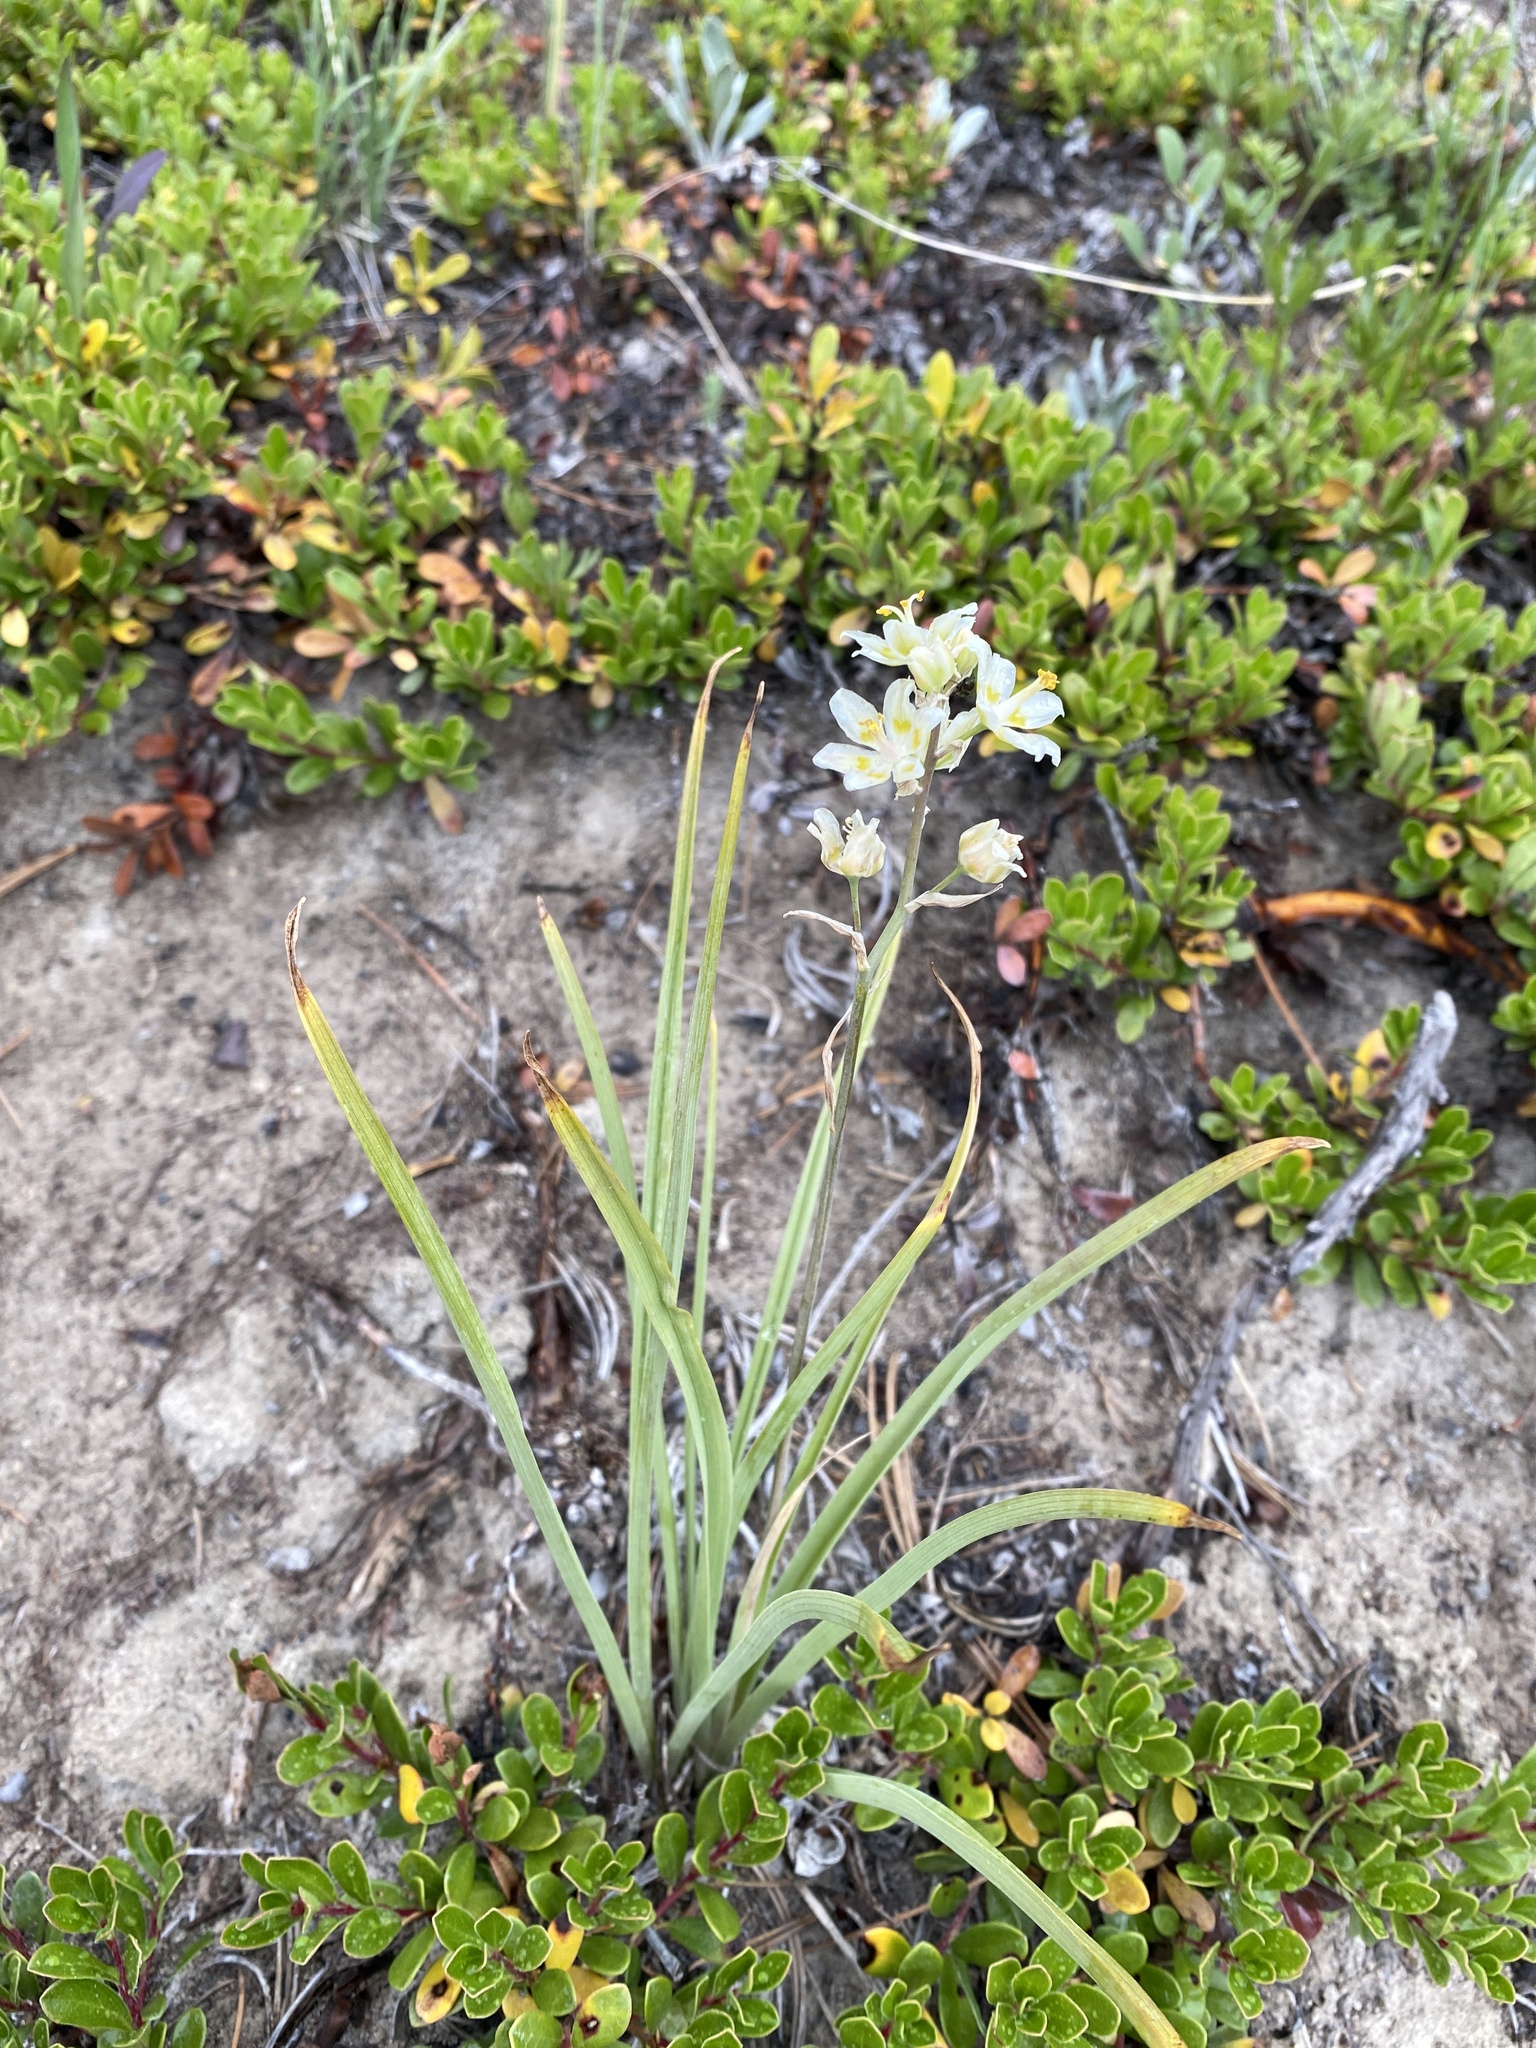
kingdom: Plantae
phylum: Tracheophyta
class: Liliopsida
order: Liliales
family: Melanthiaceae
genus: Anticlea
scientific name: Anticlea elegans
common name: Mountain death camas
